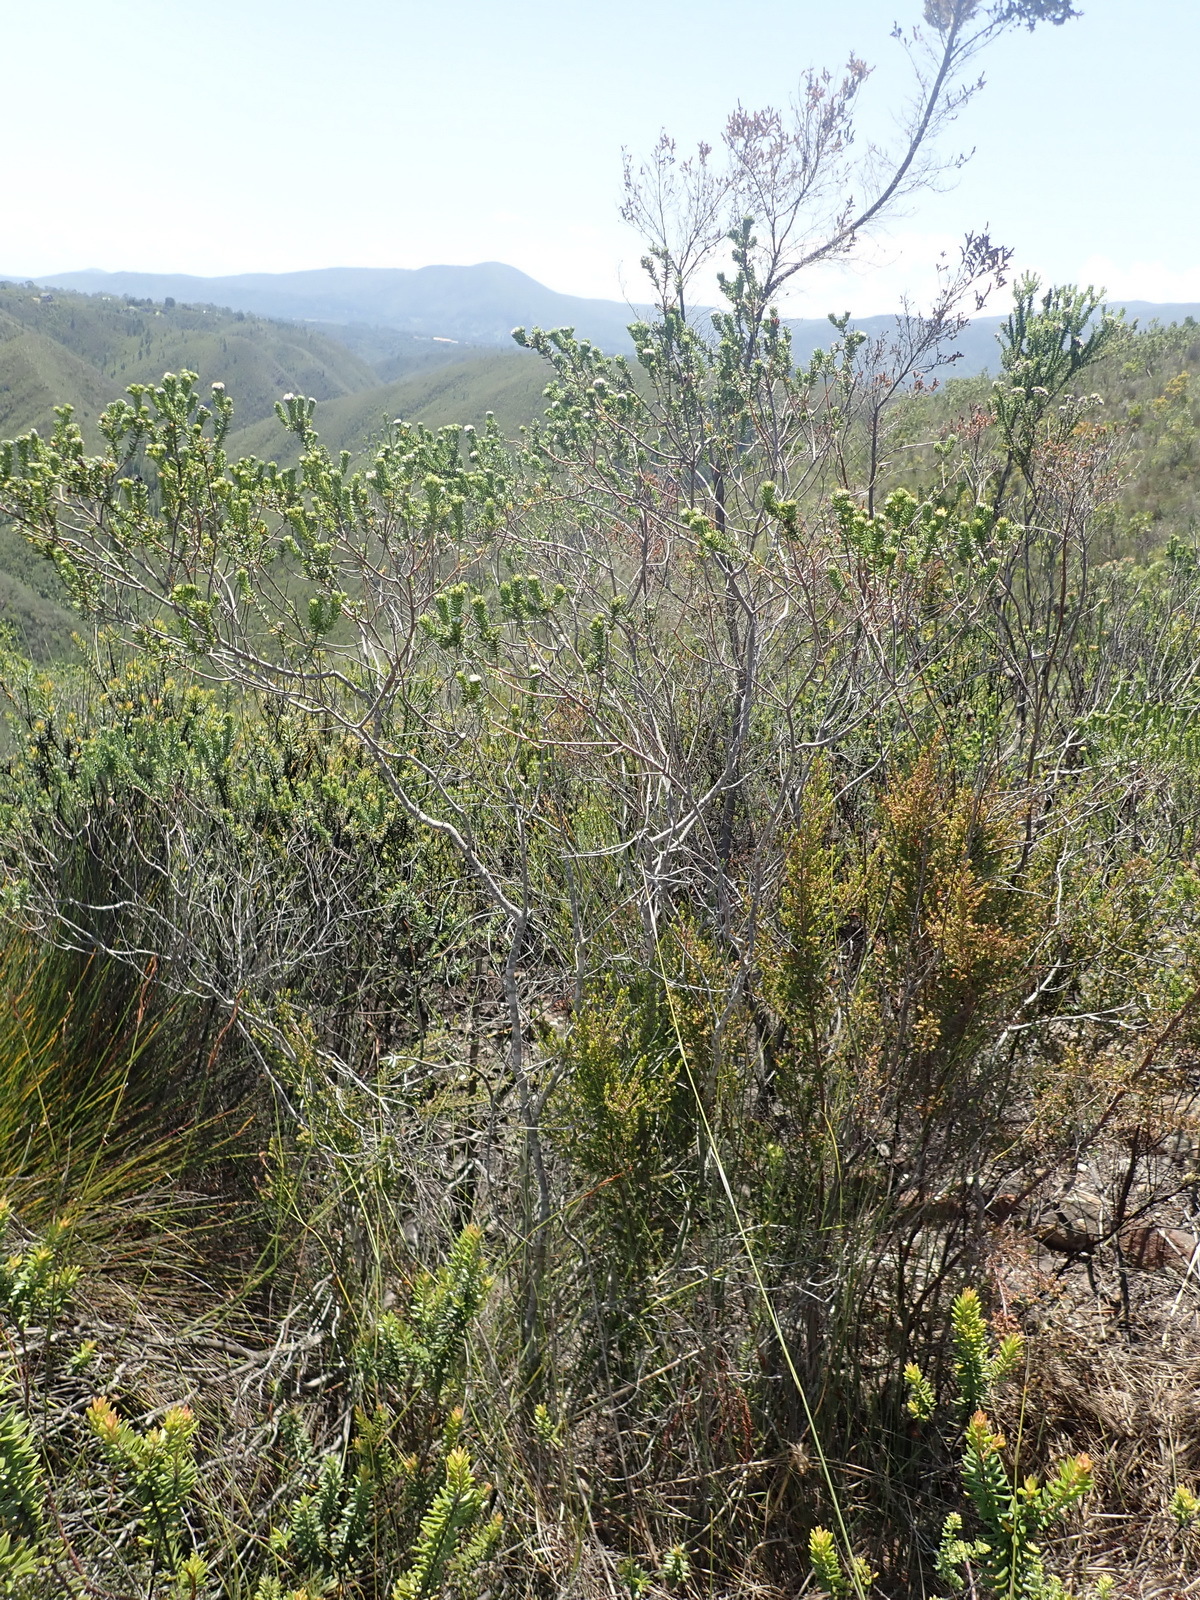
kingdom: Plantae
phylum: Tracheophyta
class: Magnoliopsida
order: Rosales
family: Rhamnaceae
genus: Phylica
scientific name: Phylica purpurea
